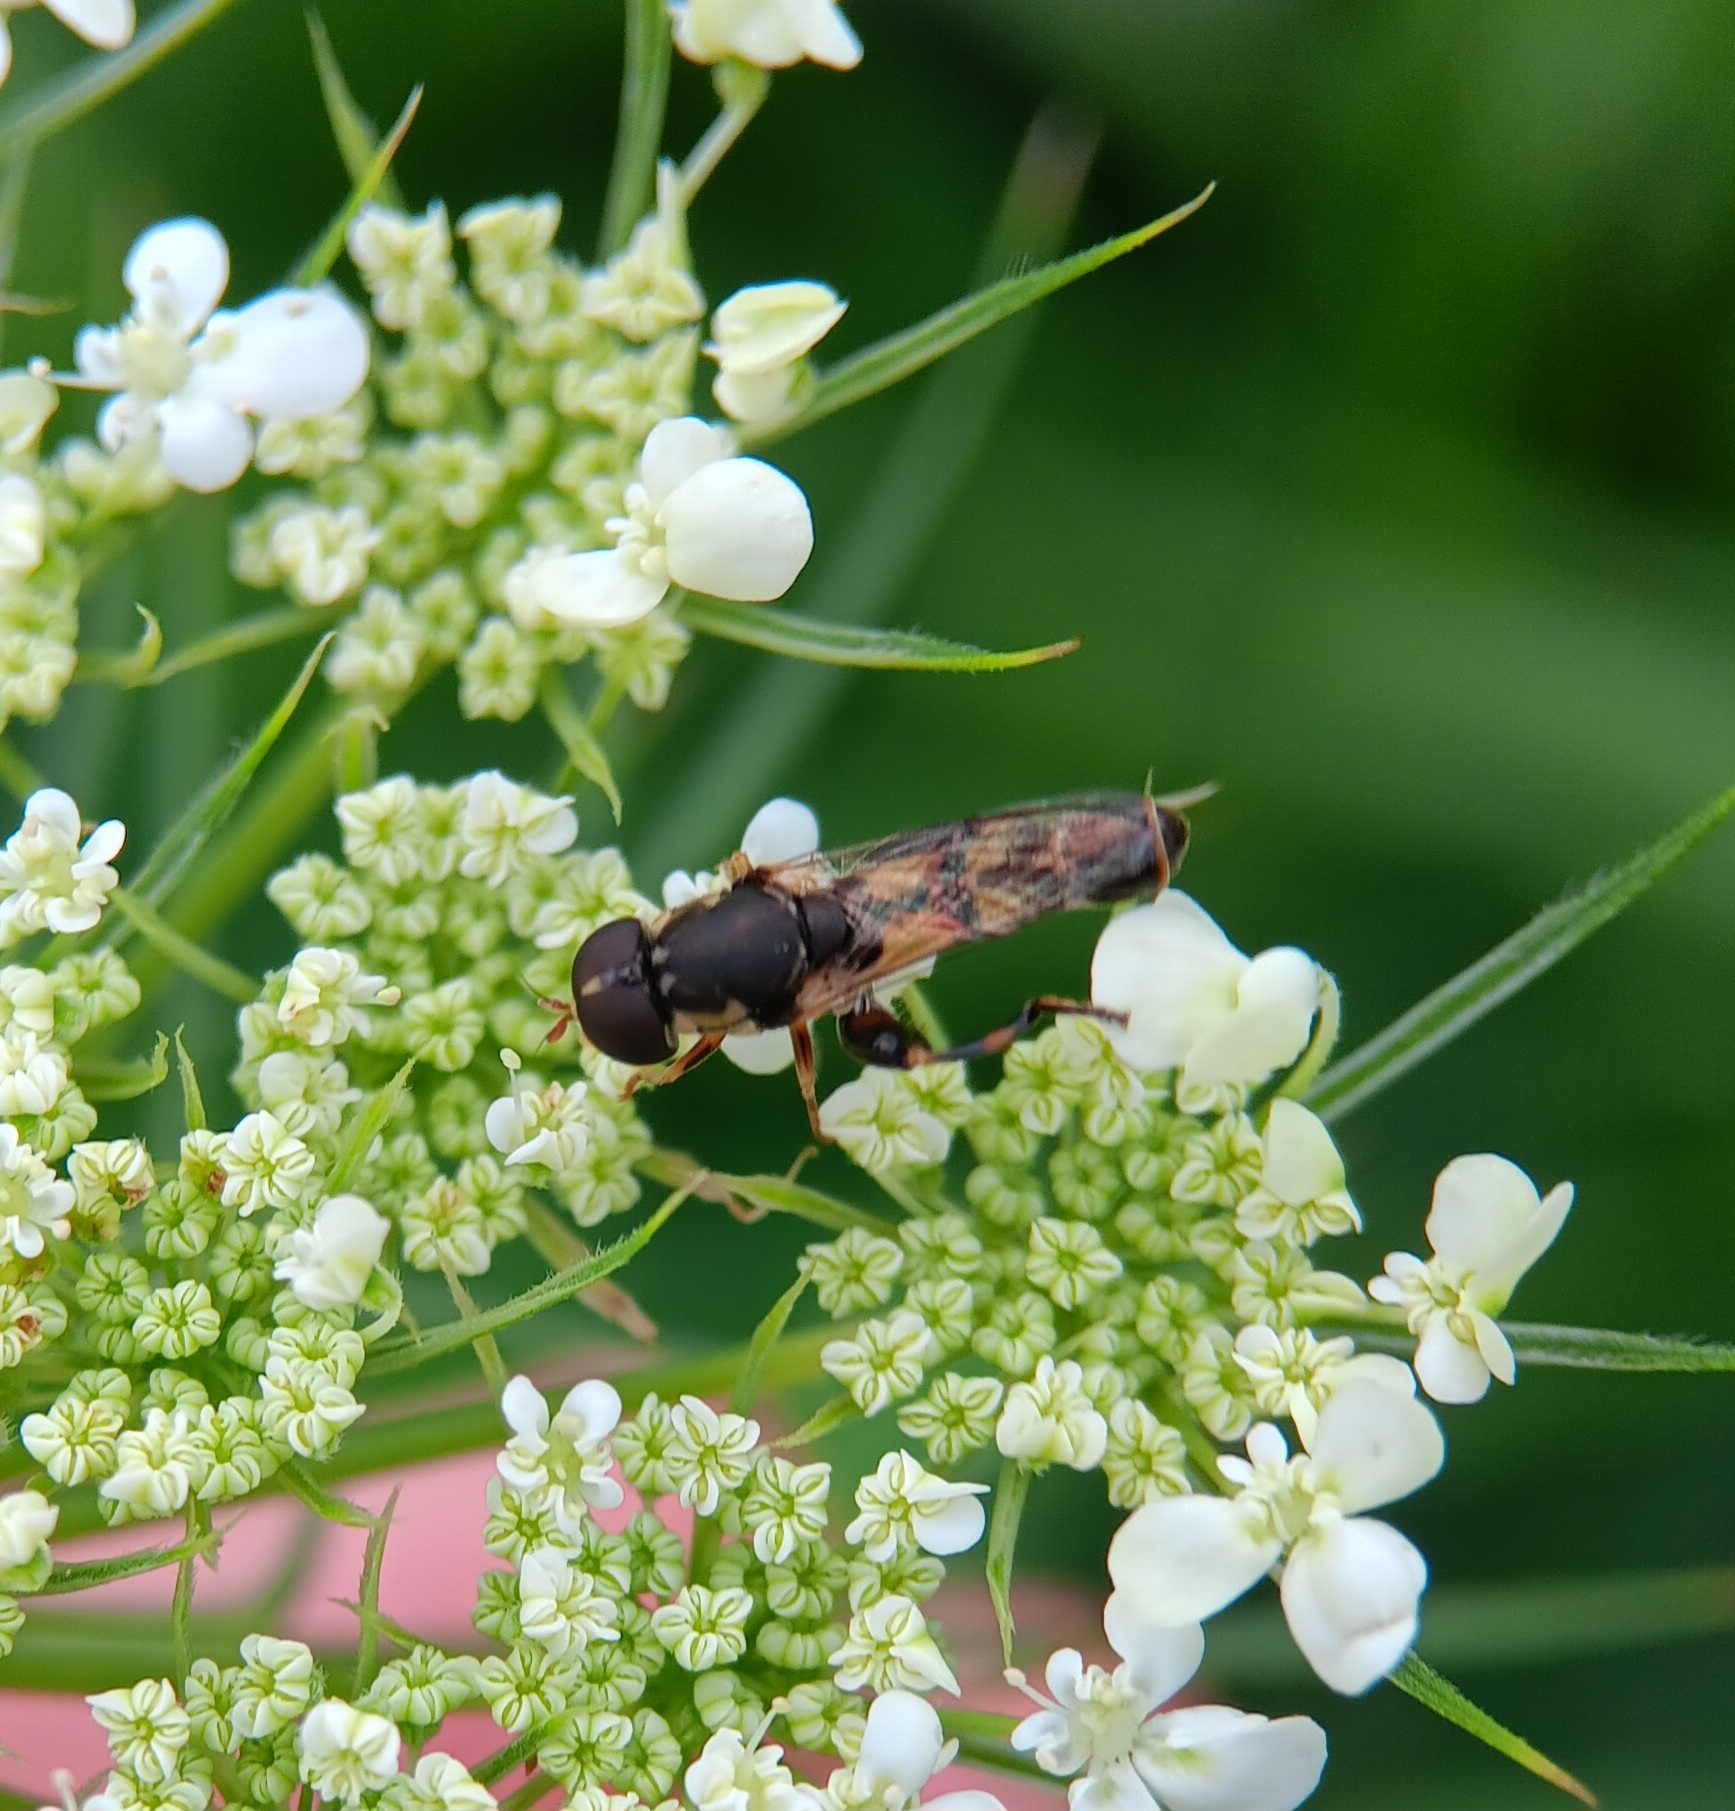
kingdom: Animalia
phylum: Arthropoda
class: Insecta
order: Diptera
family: Syrphidae
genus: Syritta
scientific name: Syritta pipiens
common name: Hover fly
